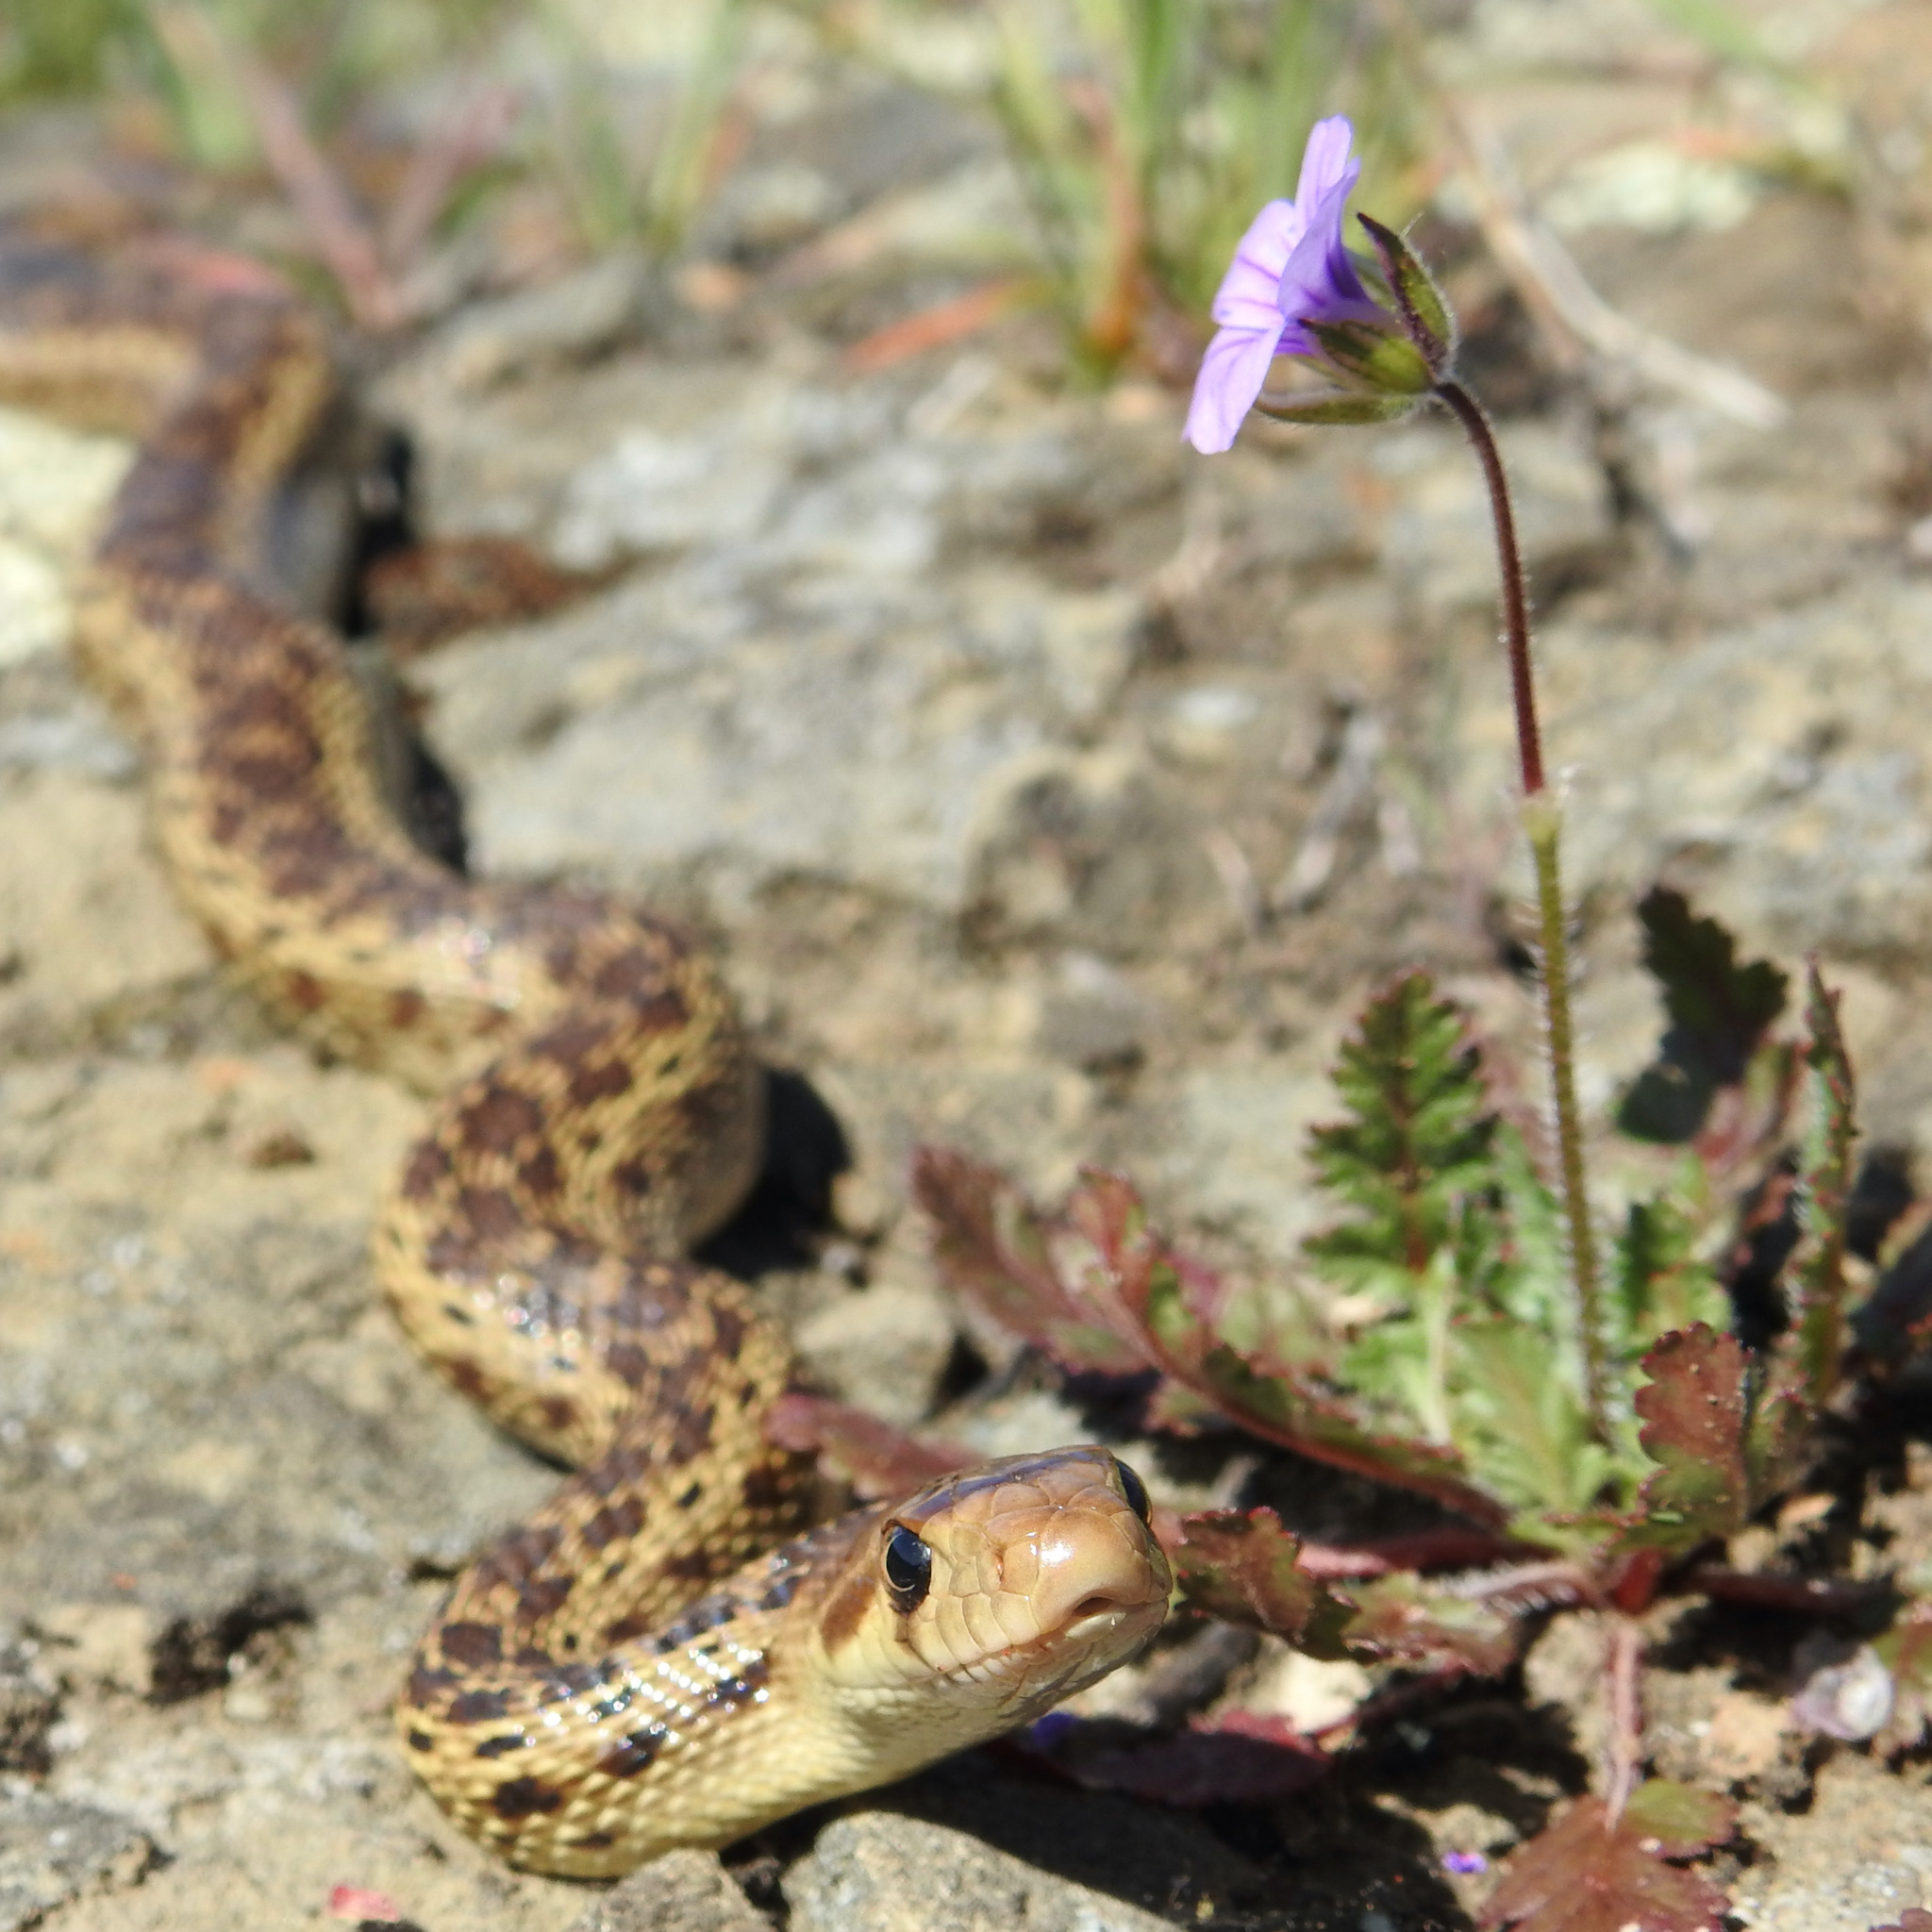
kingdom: Animalia
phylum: Chordata
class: Squamata
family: Colubridae
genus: Pituophis
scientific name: Pituophis catenifer
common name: Gopher snake
